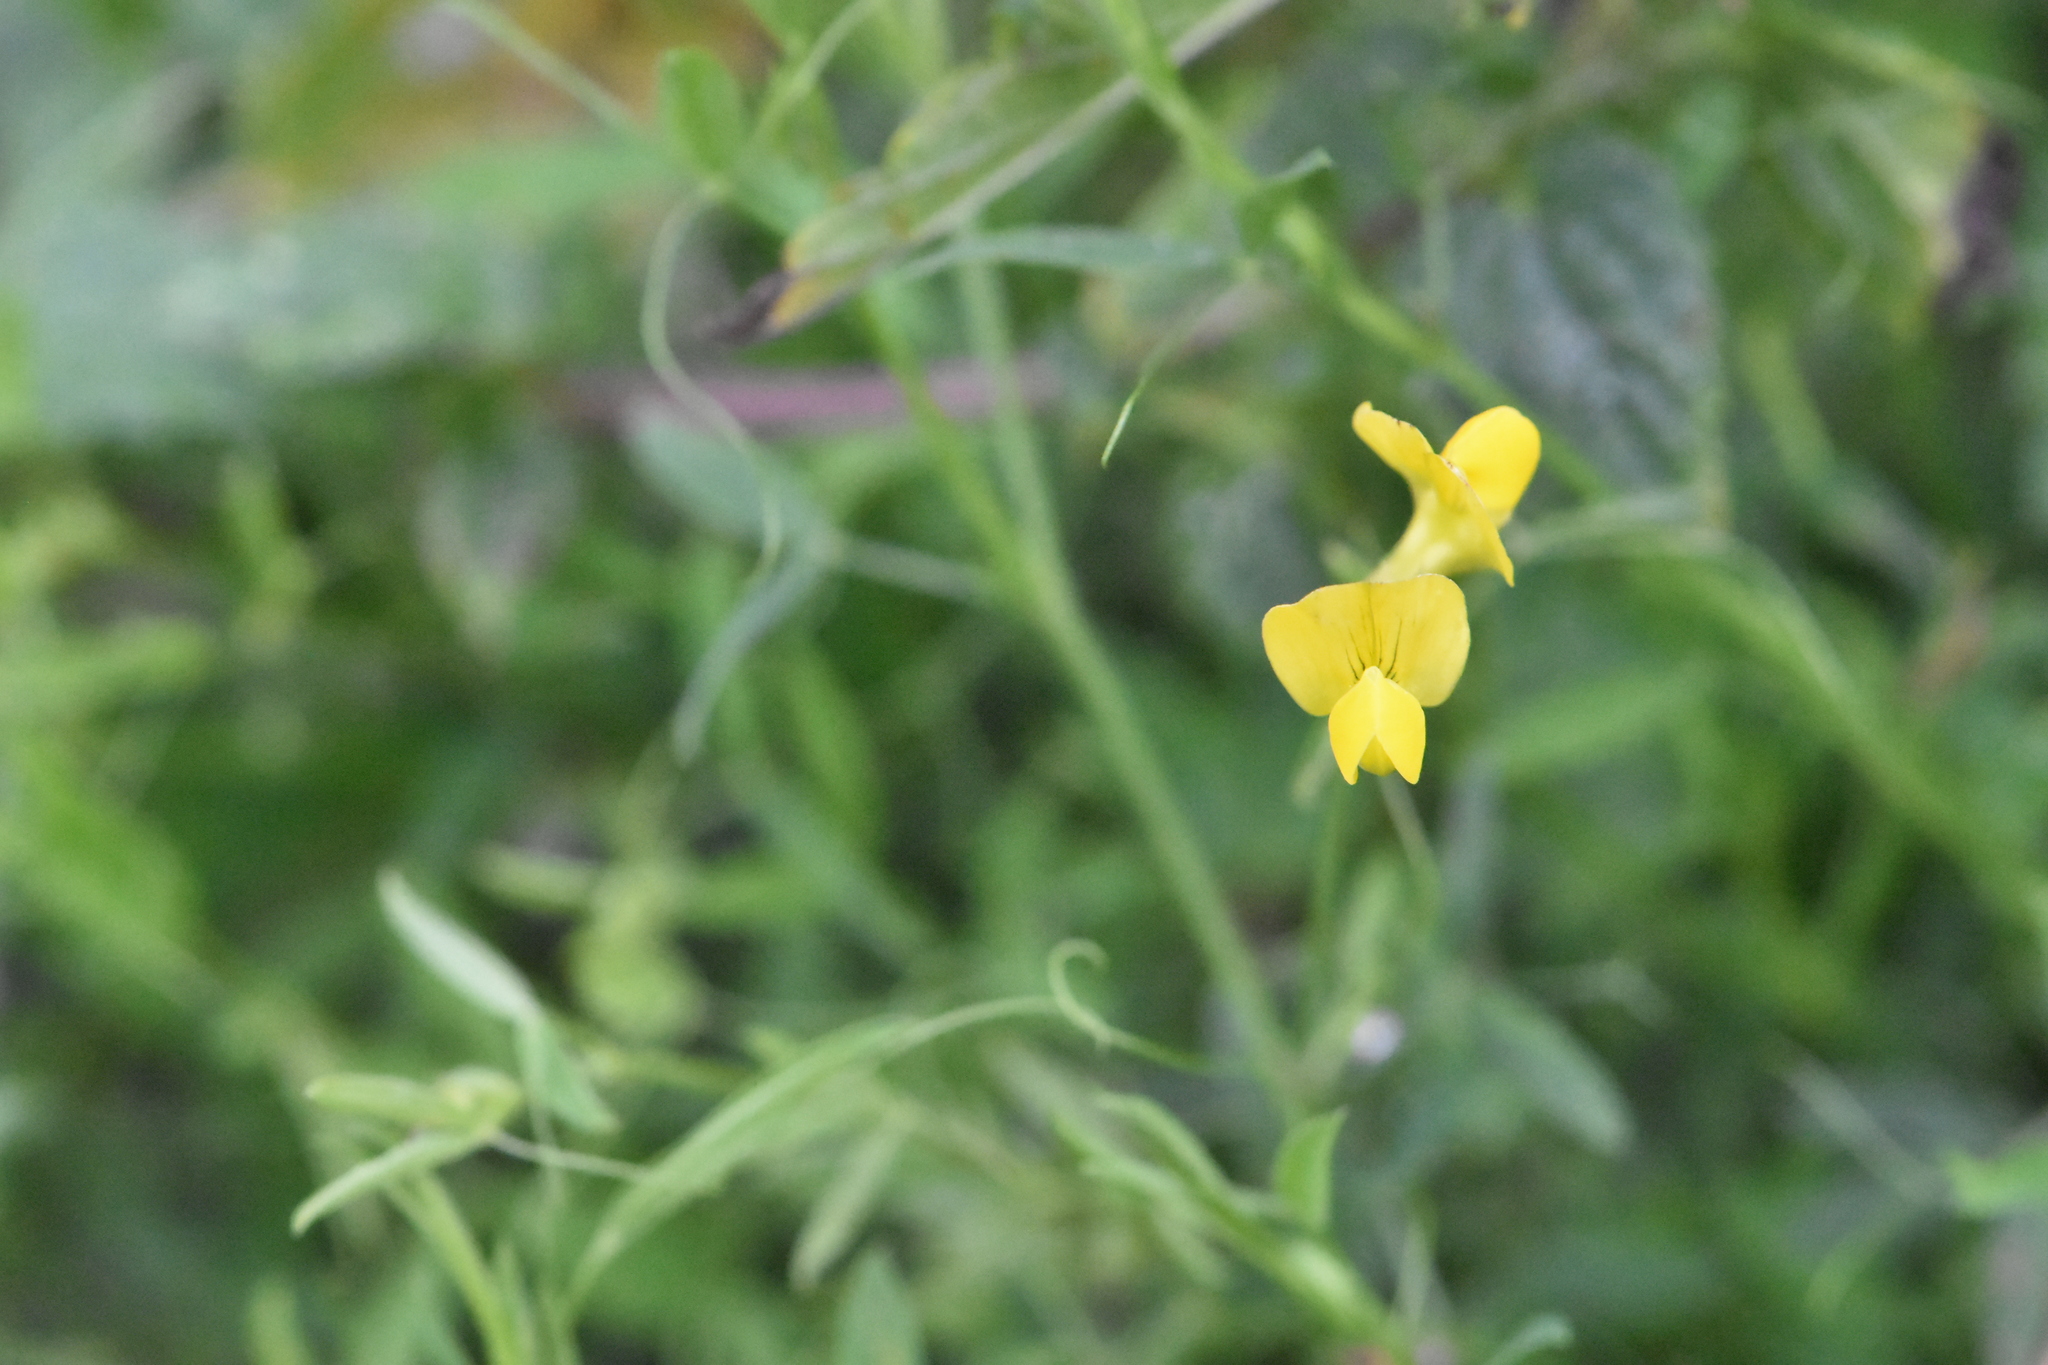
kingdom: Plantae
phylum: Tracheophyta
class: Magnoliopsida
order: Fabales
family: Fabaceae
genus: Lathyrus
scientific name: Lathyrus pratensis
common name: Meadow vetchling
